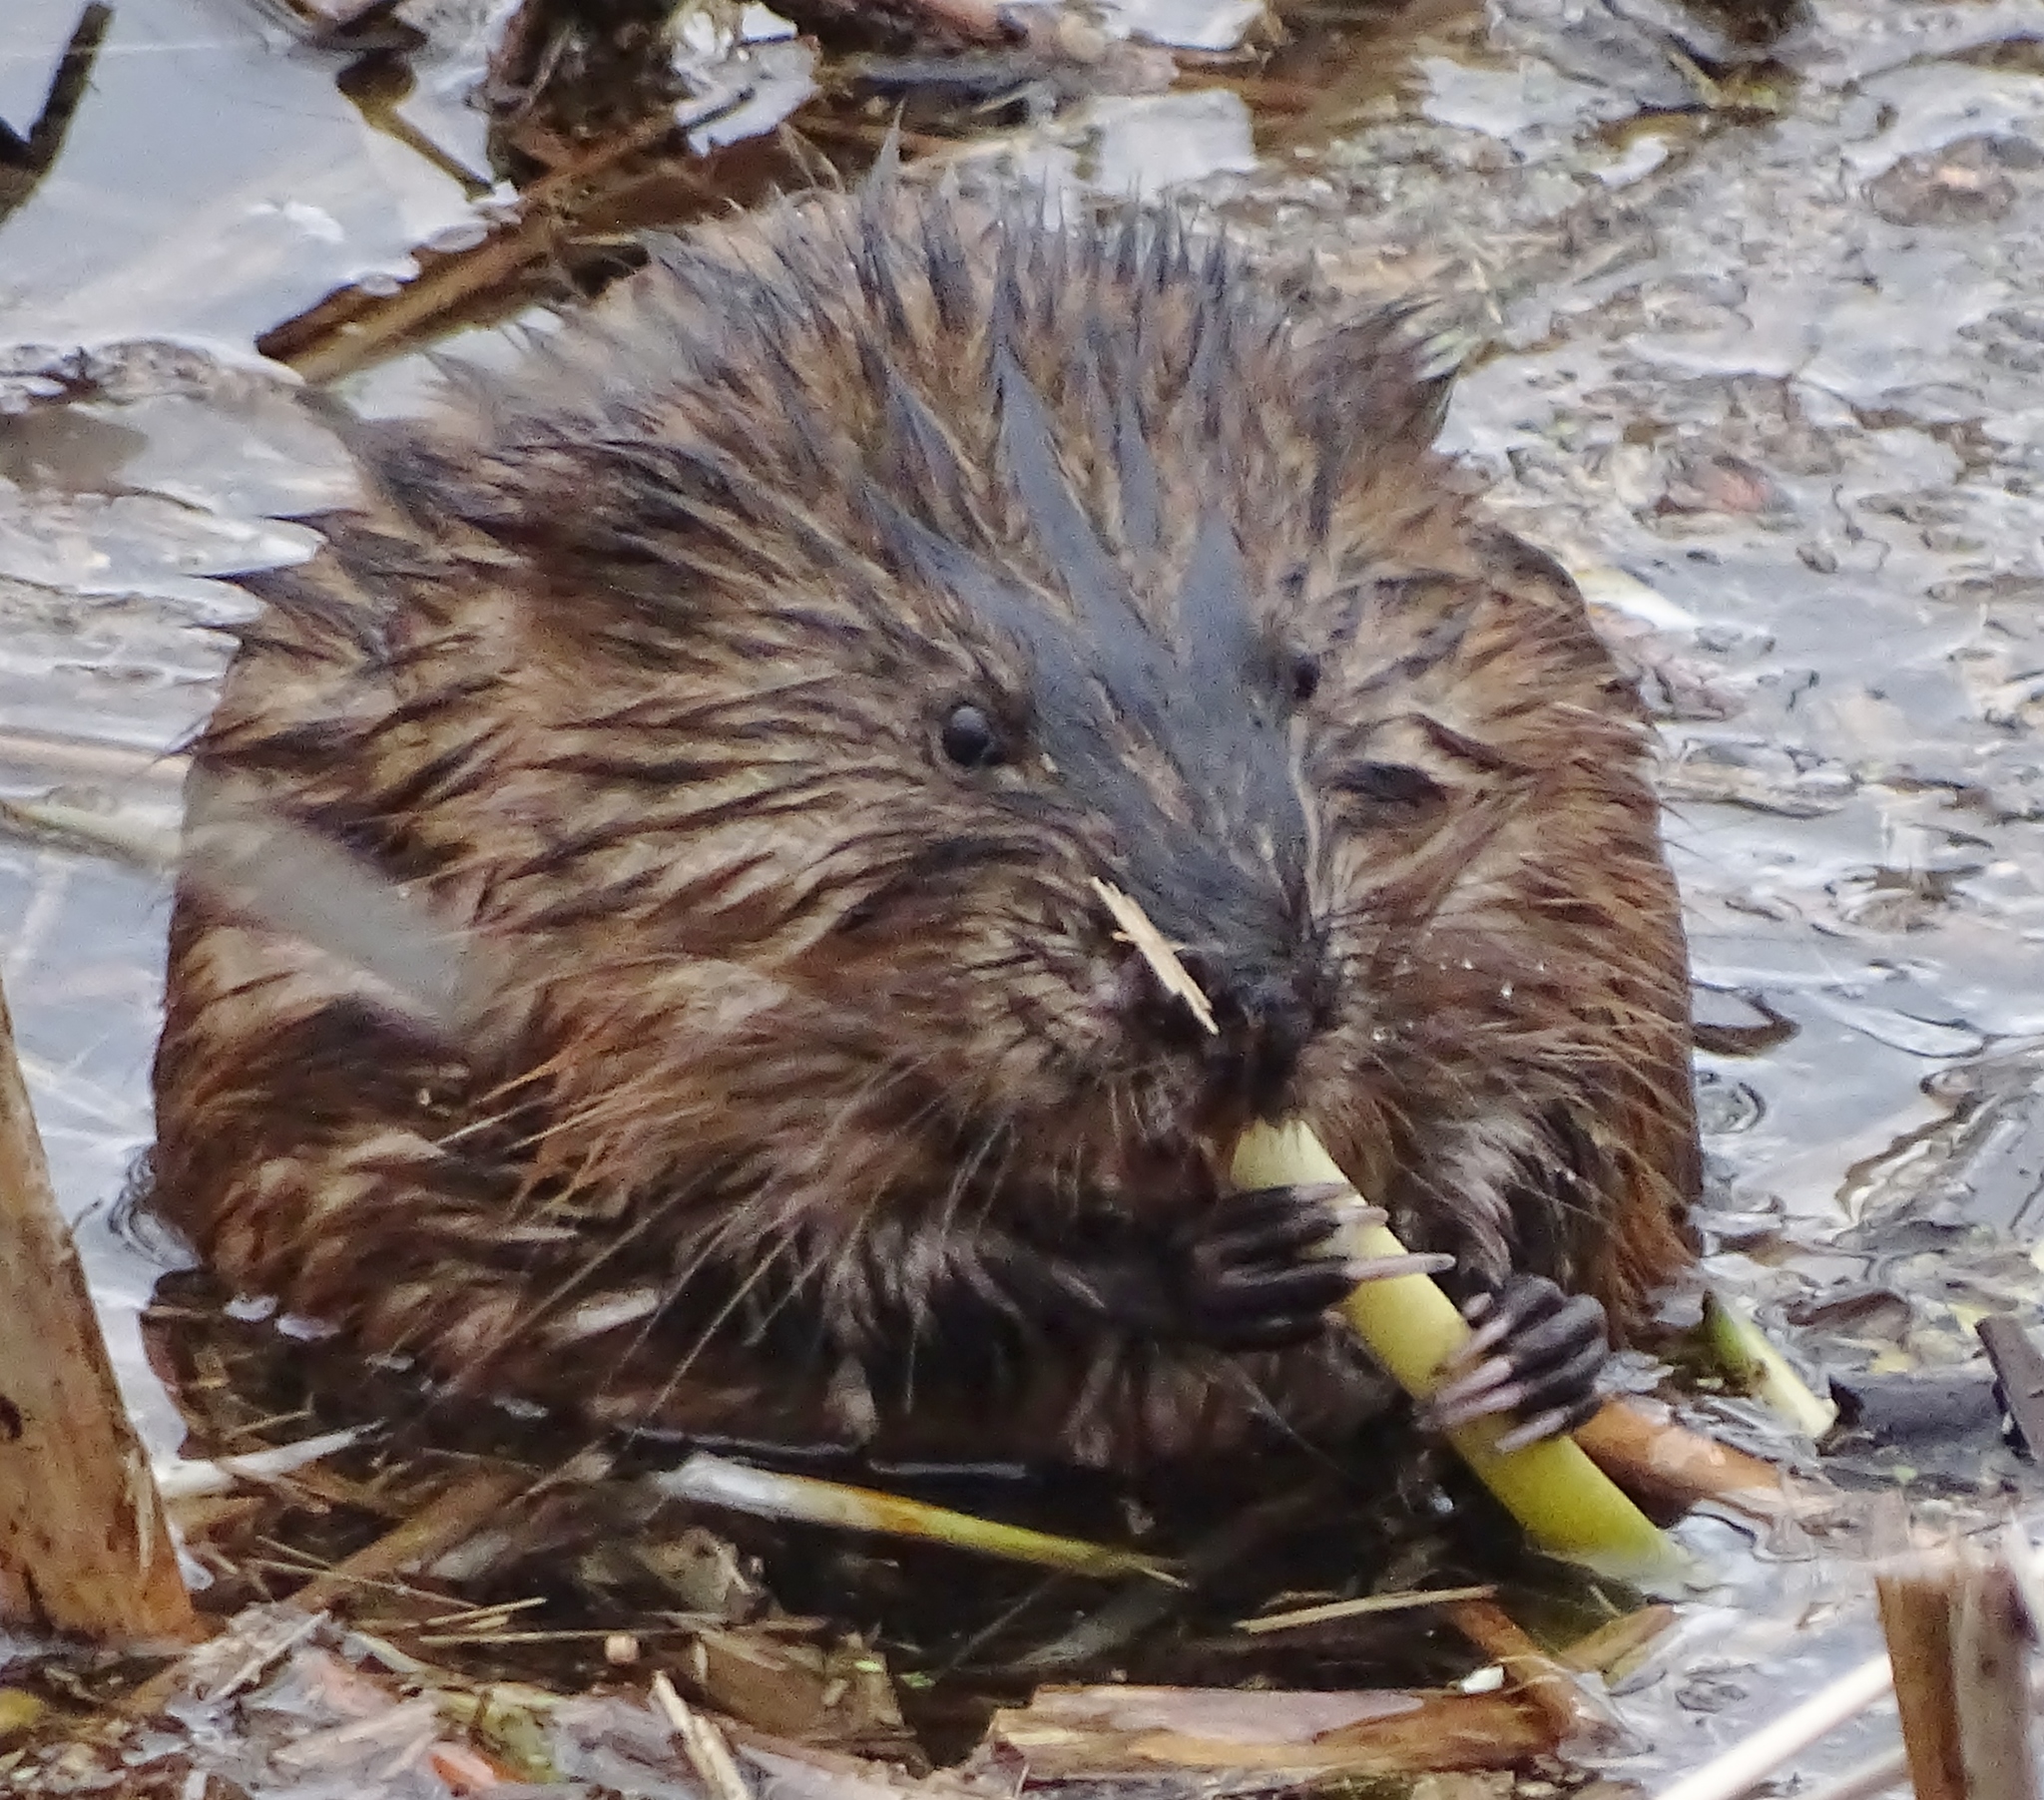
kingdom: Animalia
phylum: Chordata
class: Mammalia
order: Rodentia
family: Cricetidae
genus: Ondatra
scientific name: Ondatra zibethicus
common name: Muskrat
